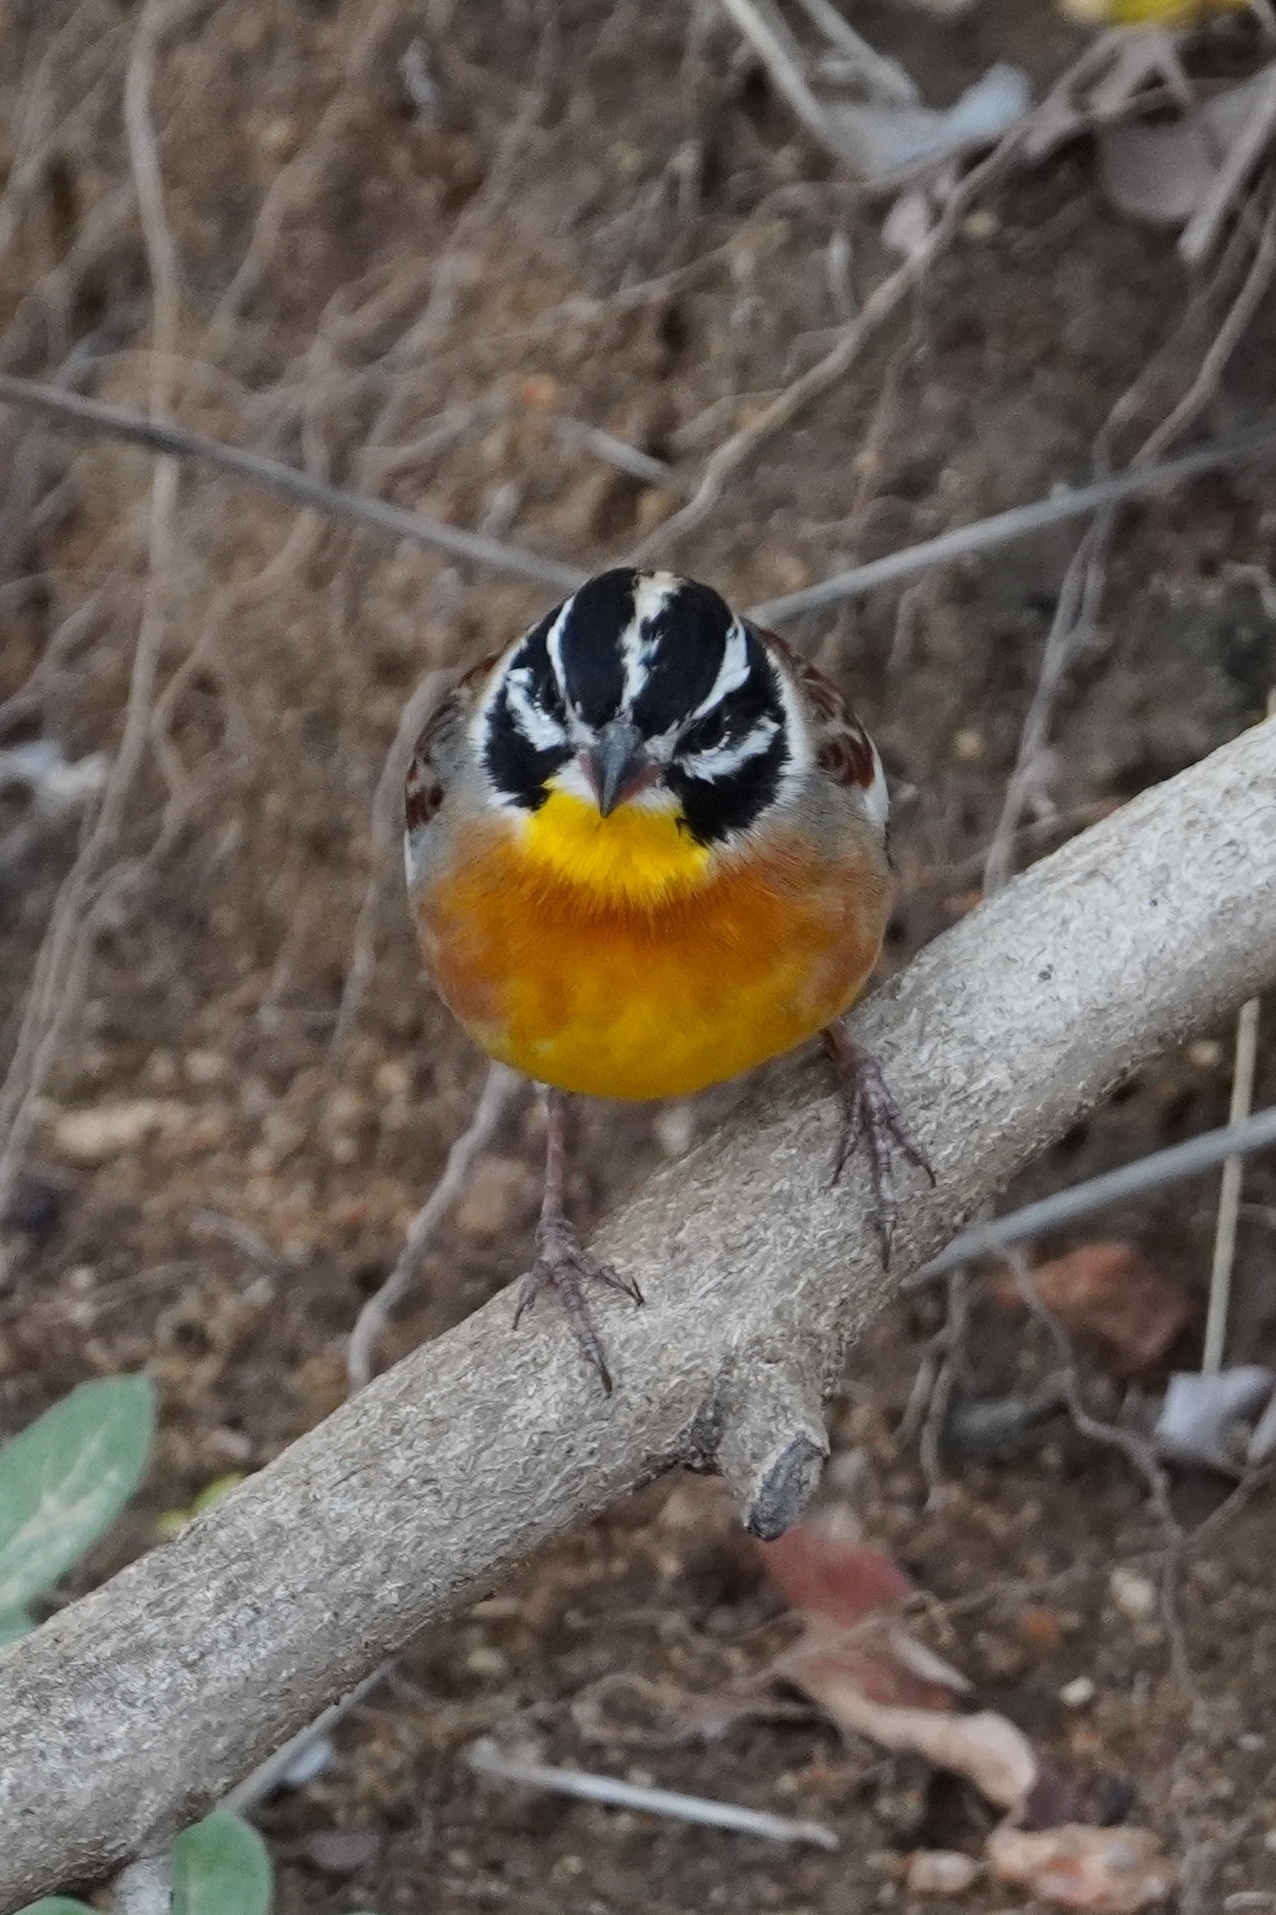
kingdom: Animalia
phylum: Chordata
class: Aves
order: Passeriformes
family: Emberizidae
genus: Emberiza
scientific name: Emberiza flaviventris
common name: Golden-breasted bunting
